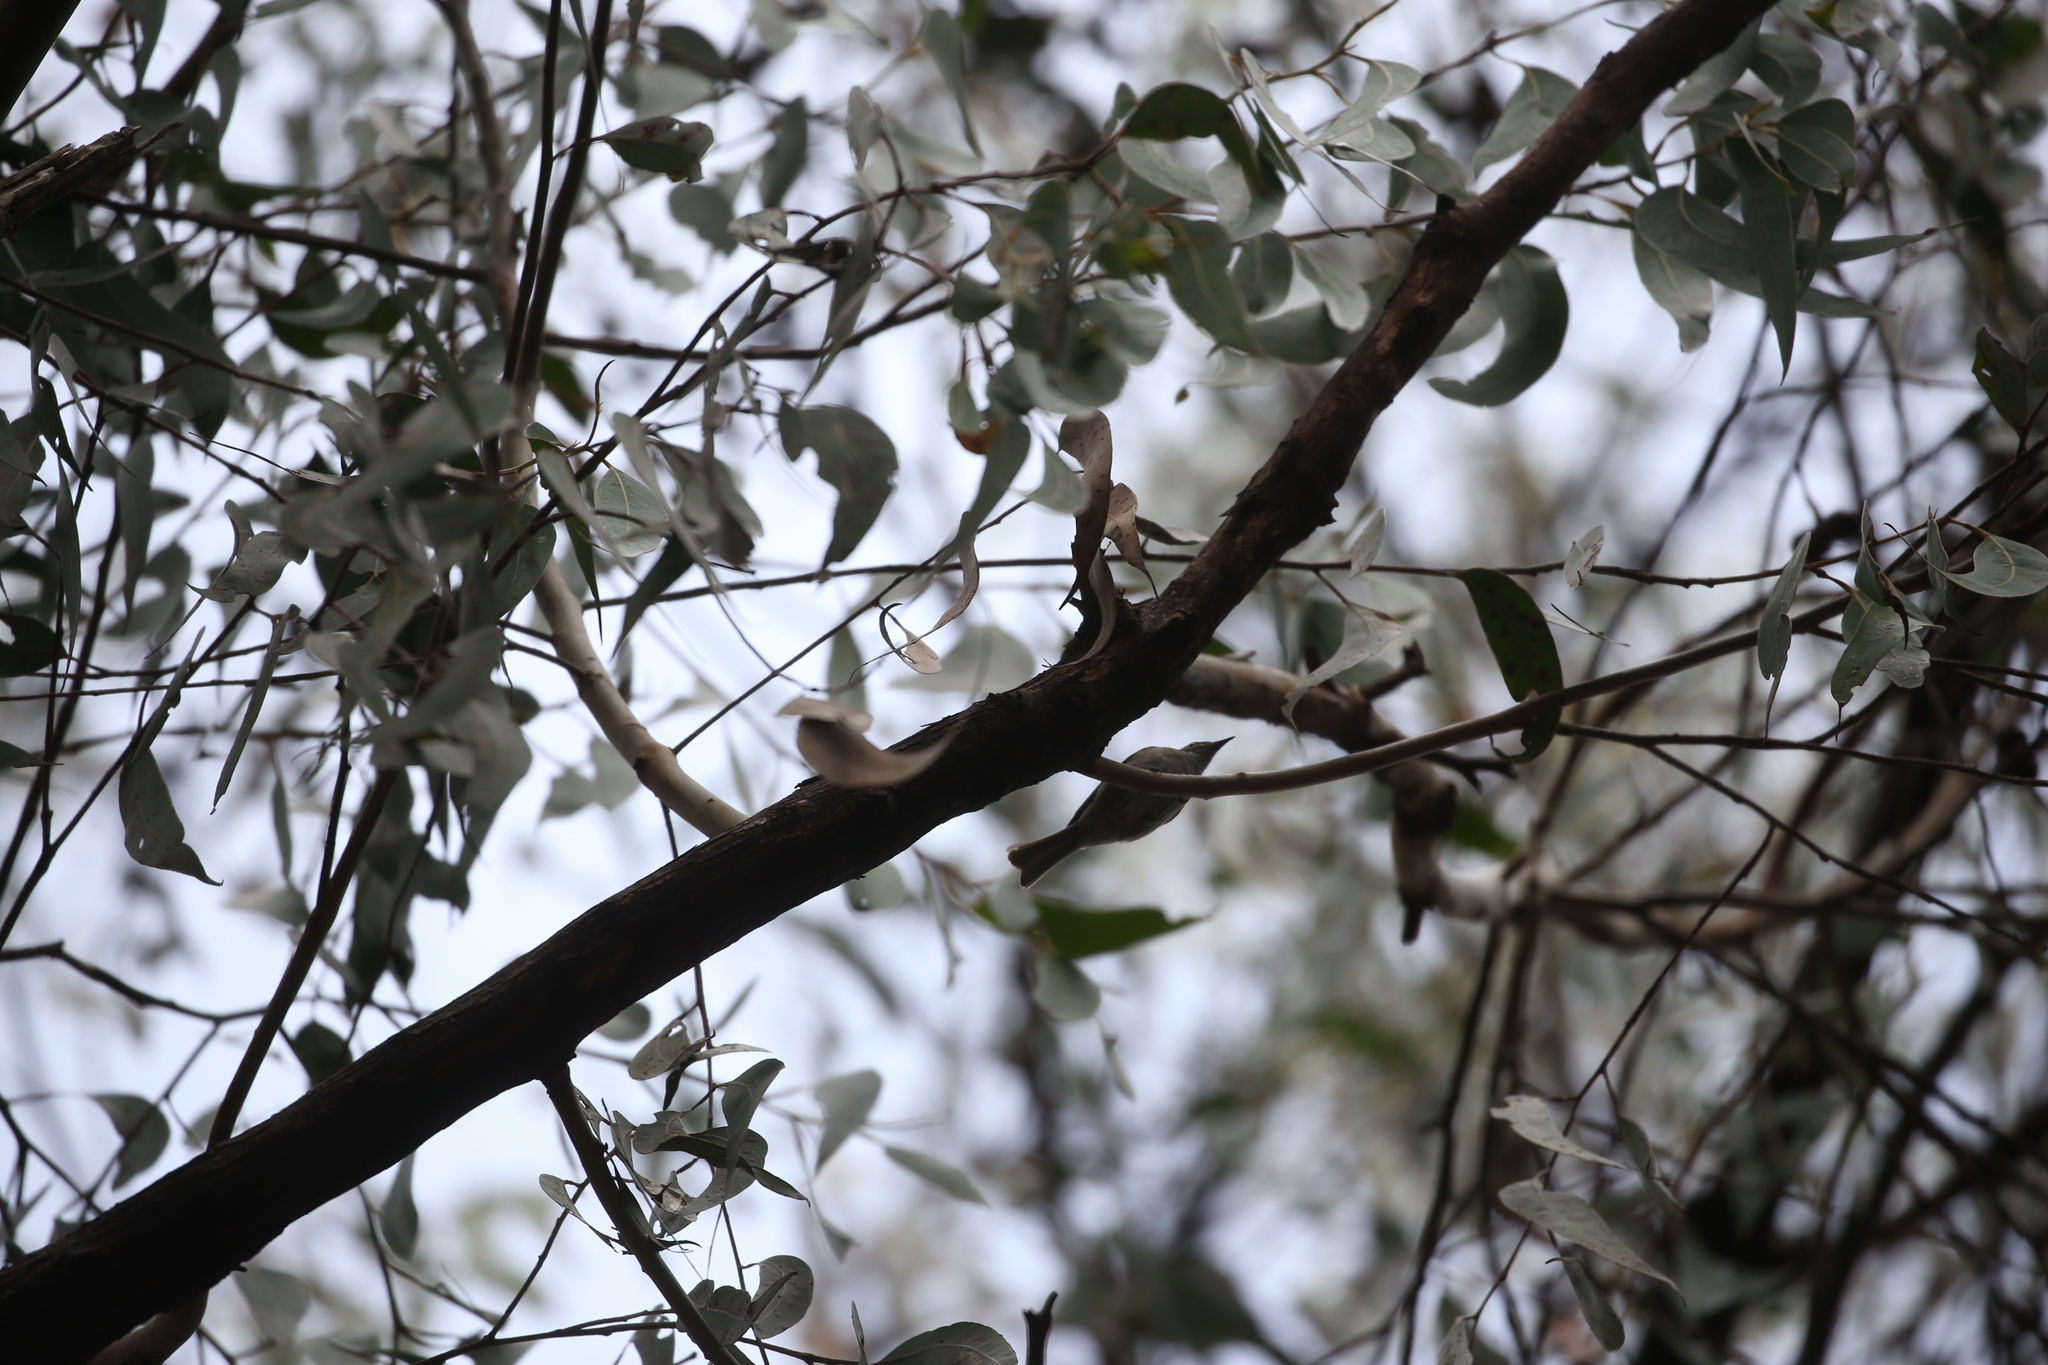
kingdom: Animalia
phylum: Chordata
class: Aves
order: Passeriformes
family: Meliphagidae
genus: Caligavis
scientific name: Caligavis chrysops
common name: Yellow-faced honeyeater
